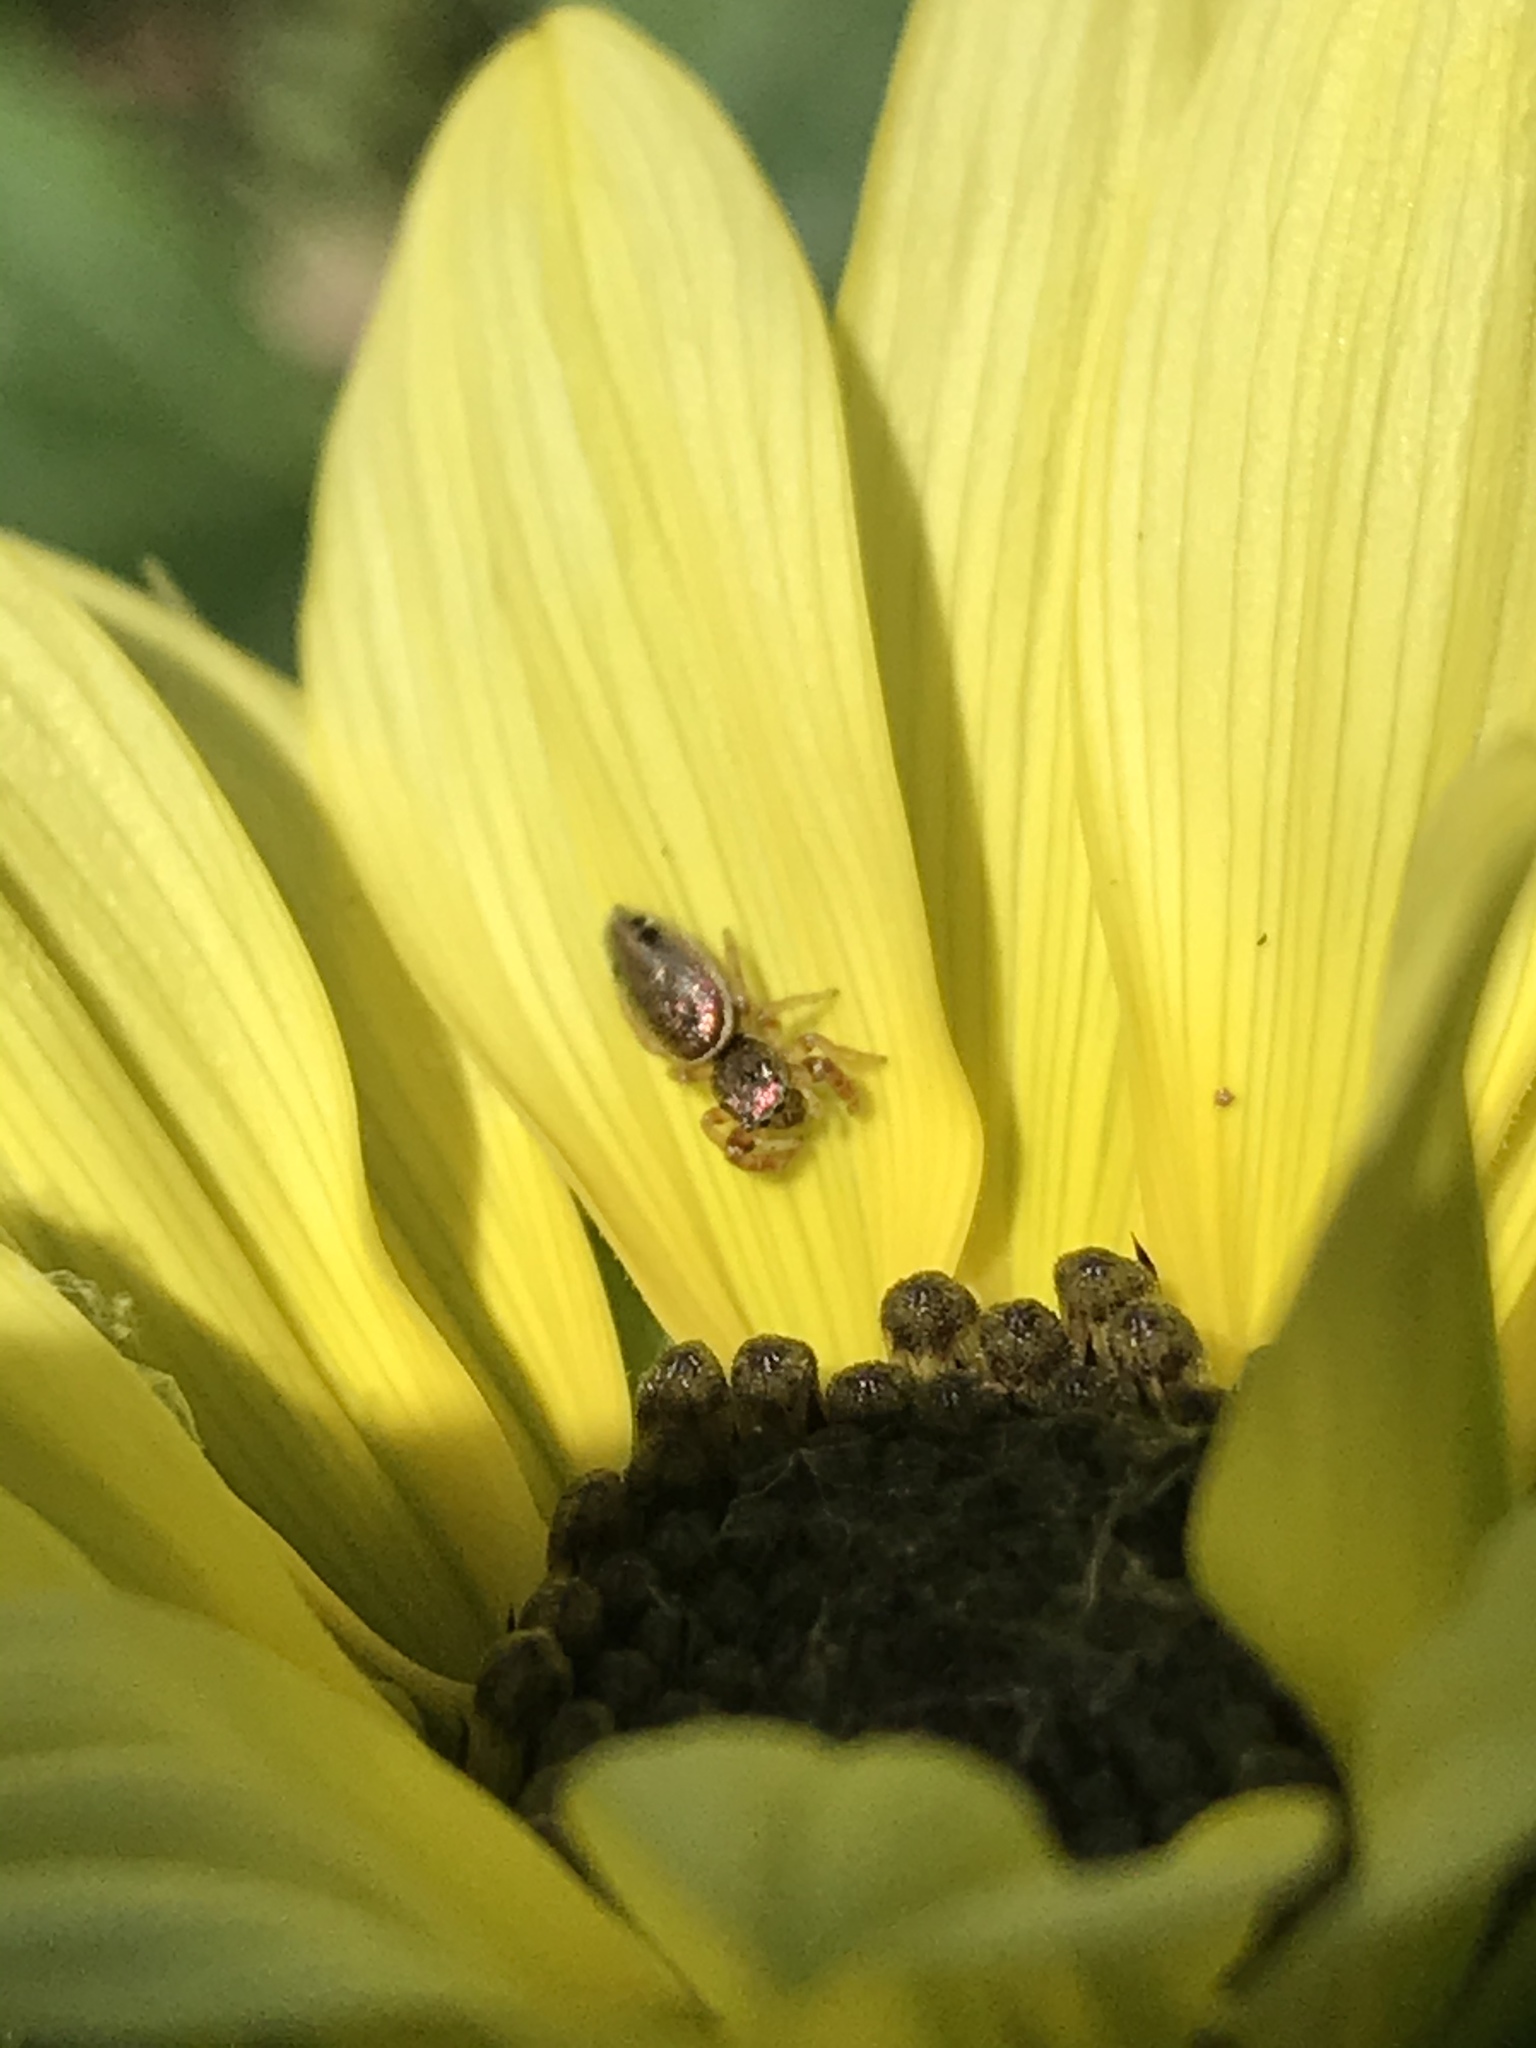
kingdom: Animalia
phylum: Arthropoda
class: Arachnida
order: Araneae
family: Salticidae
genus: Sassacus
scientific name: Sassacus vitis
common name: Jumping spiders
